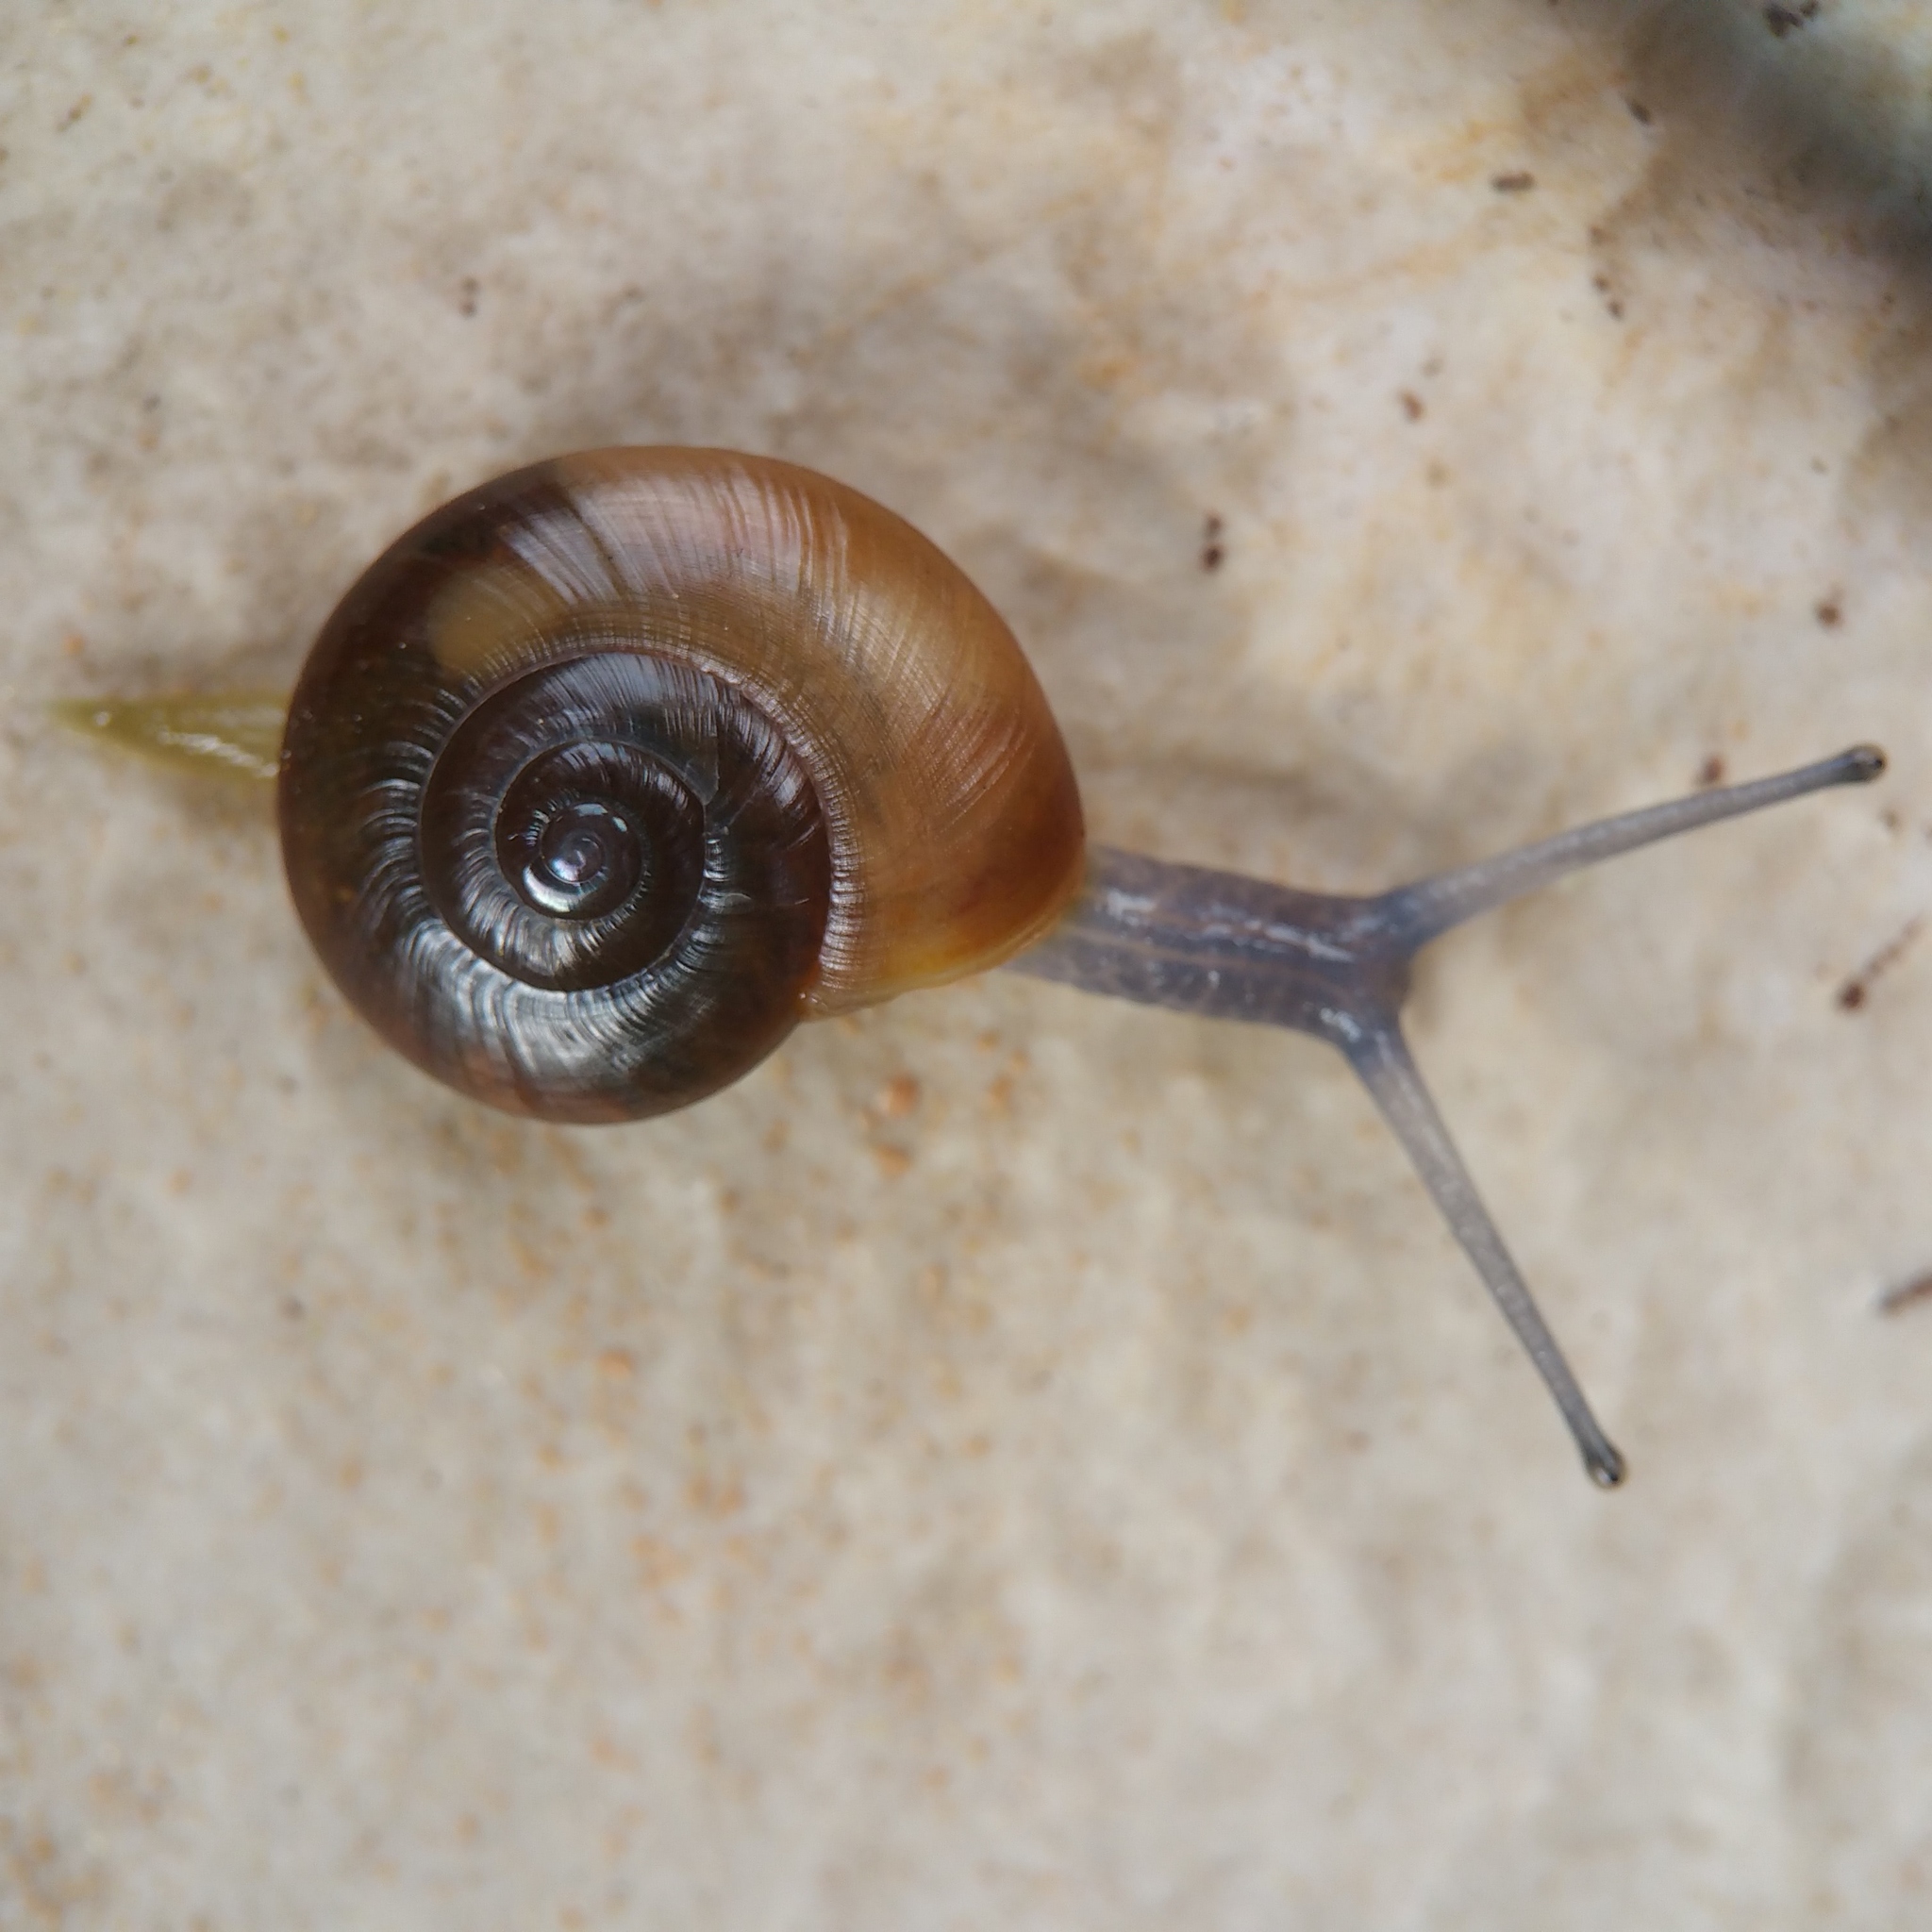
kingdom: Animalia
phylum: Mollusca
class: Gastropoda
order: Stylommatophora
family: Oxychilidae
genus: Eopolita
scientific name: Eopolita protensa
